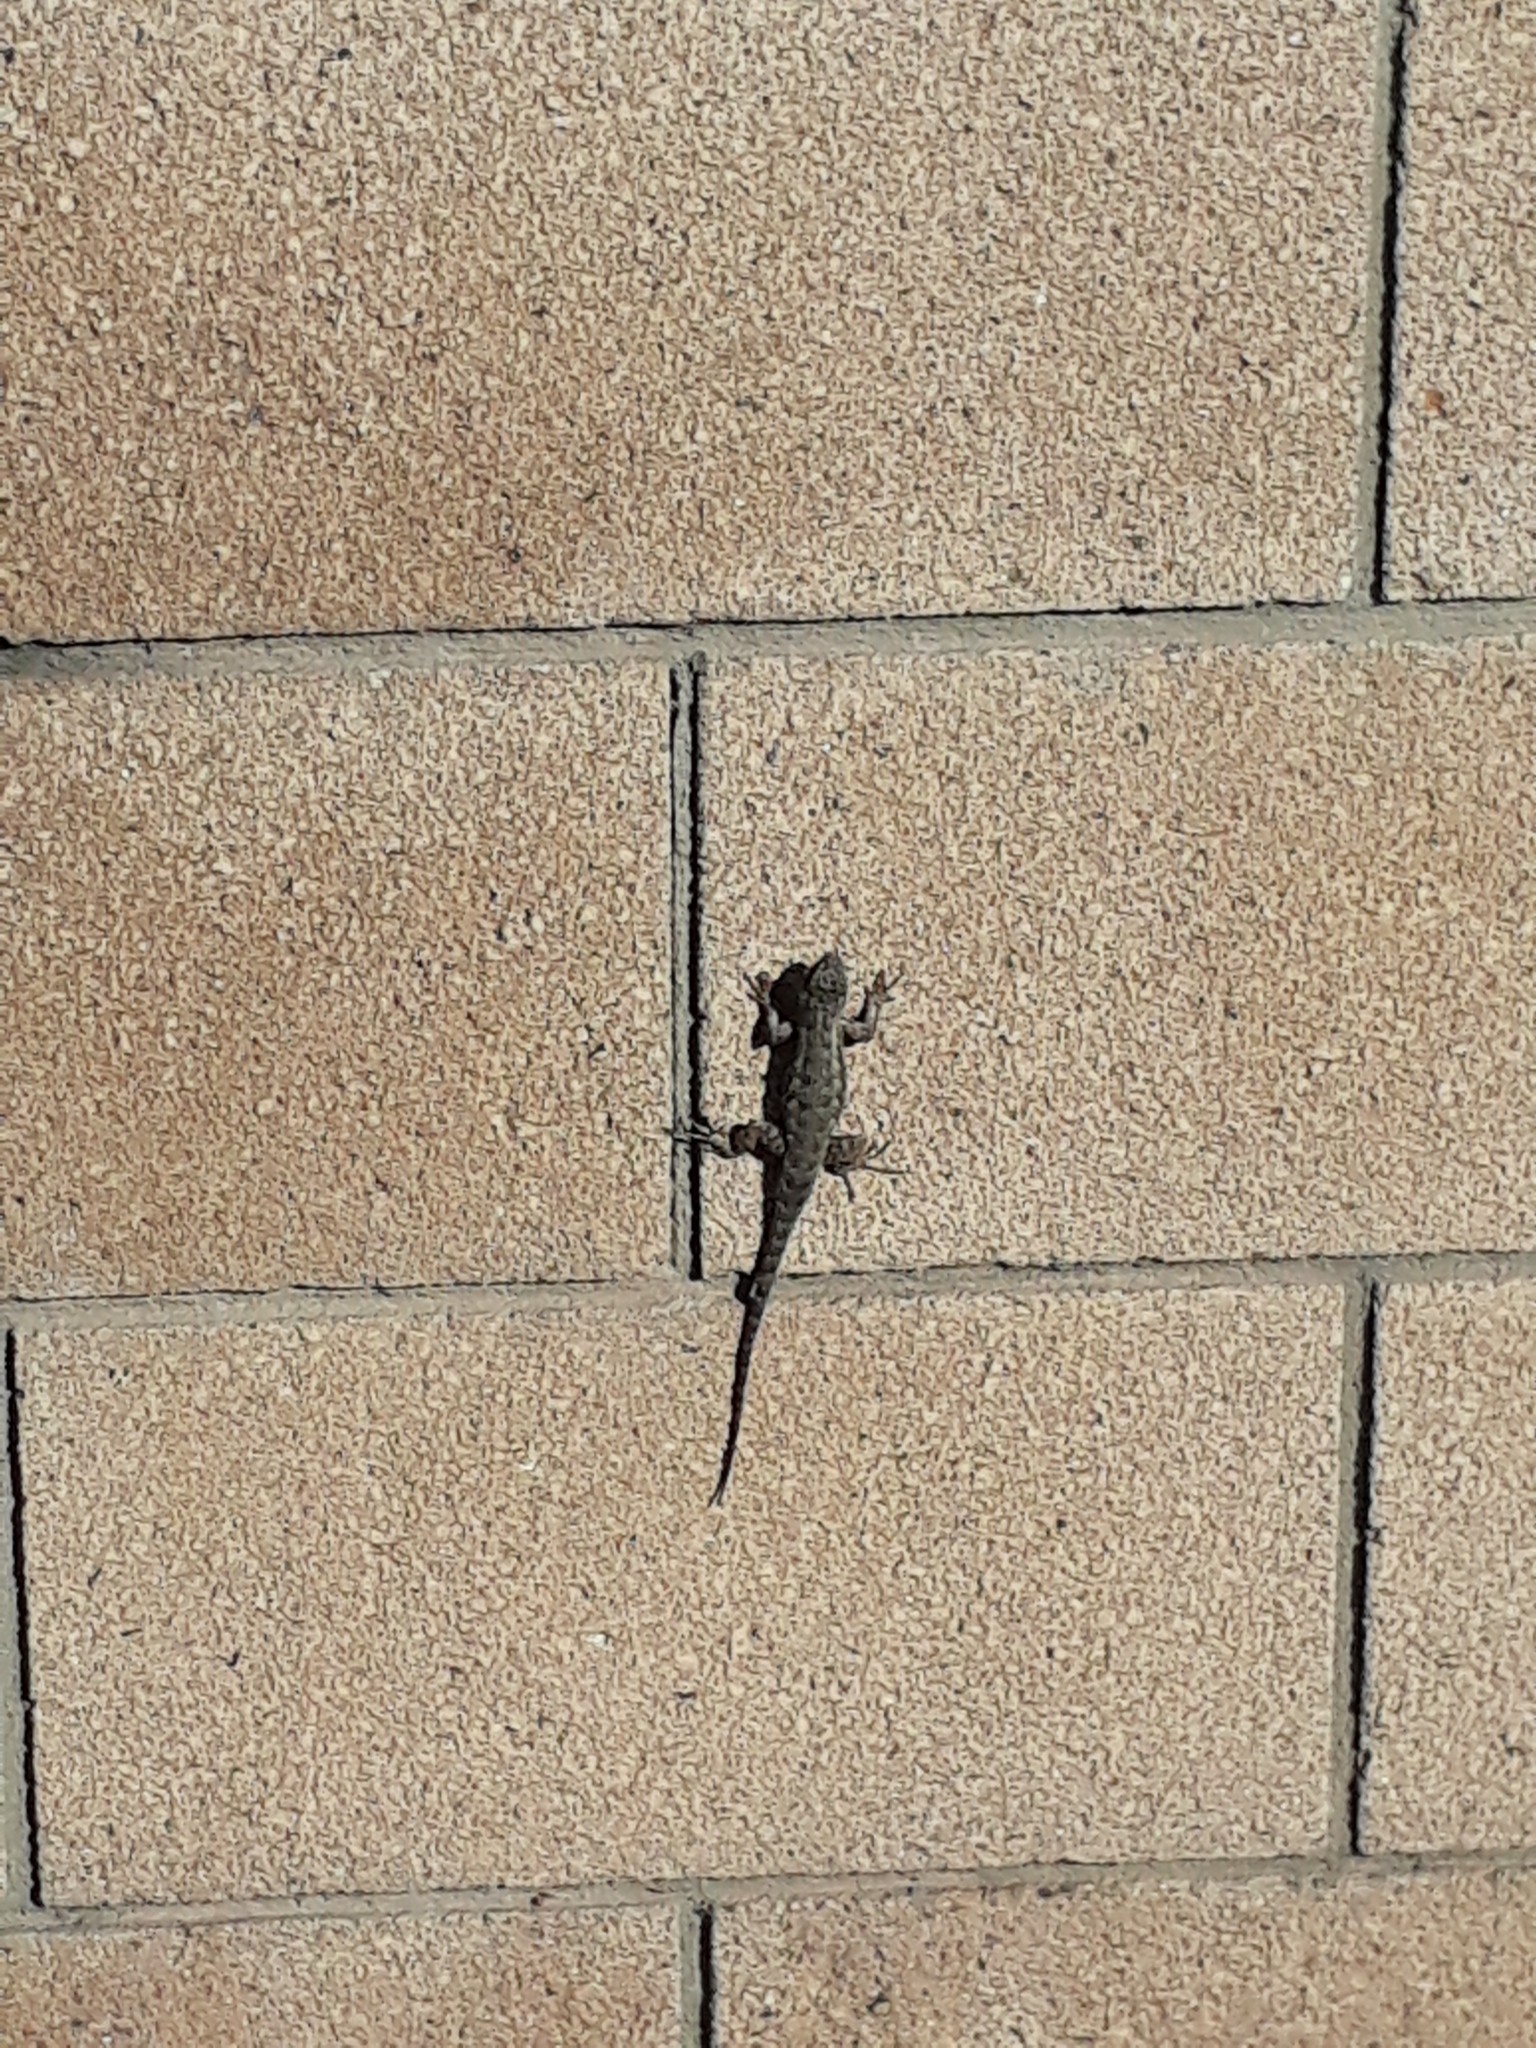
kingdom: Animalia
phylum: Chordata
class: Squamata
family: Phrynosomatidae
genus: Sceloporus
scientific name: Sceloporus occidentalis
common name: Western fence lizard
